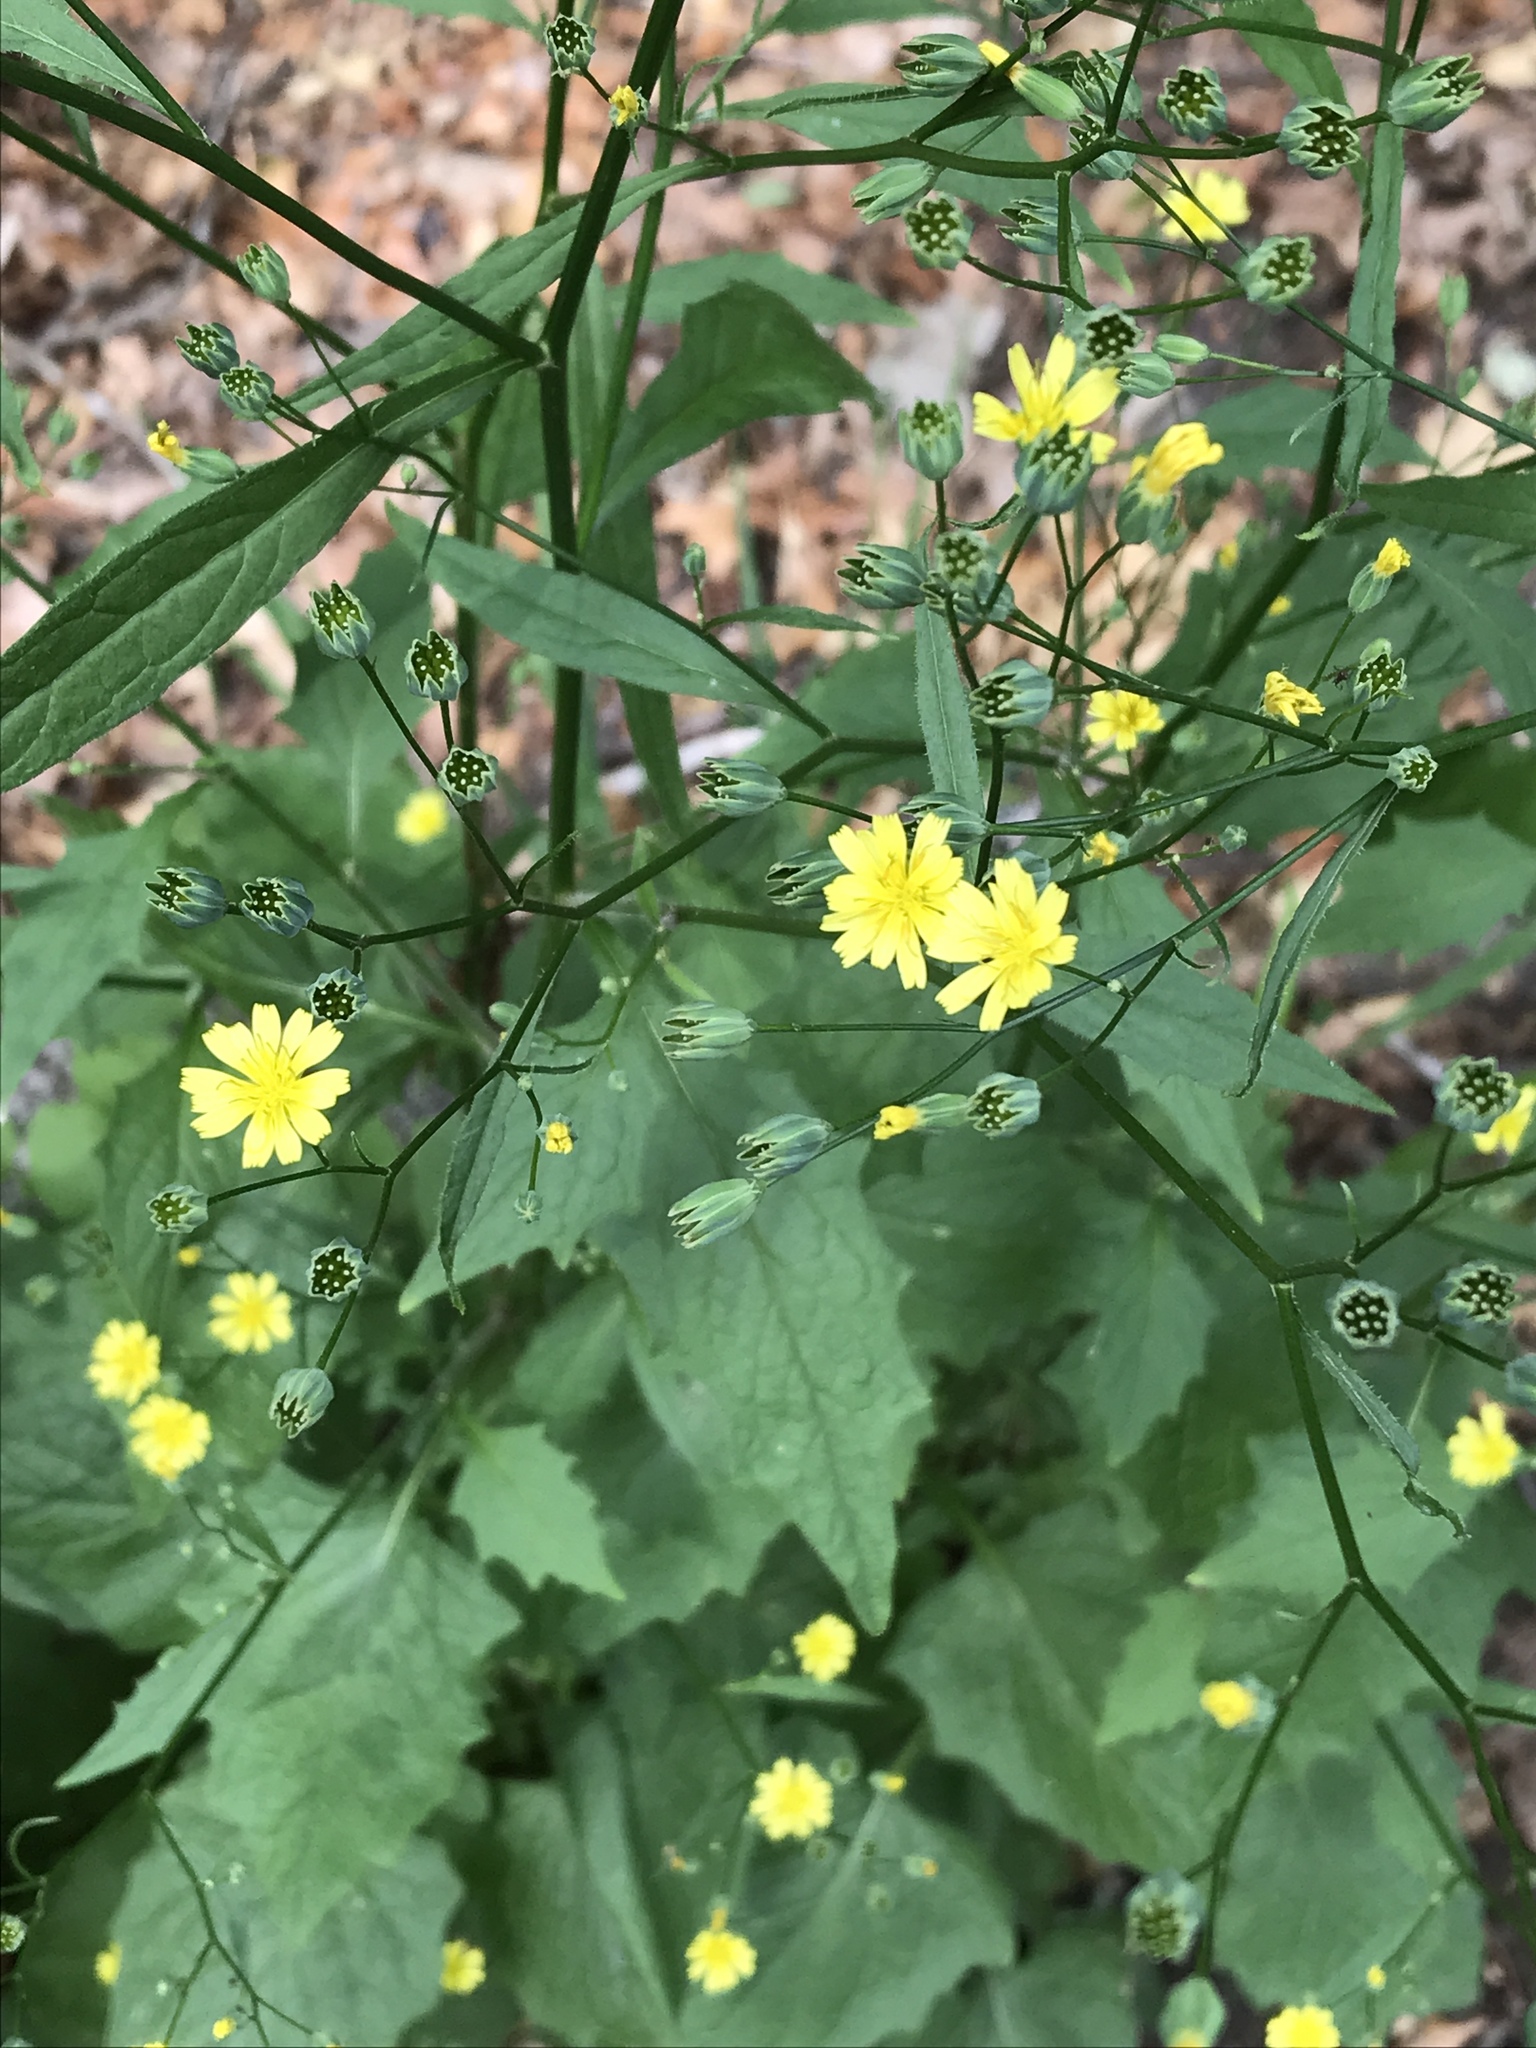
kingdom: Plantae
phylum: Tracheophyta
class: Magnoliopsida
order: Asterales
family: Asteraceae
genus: Lapsana
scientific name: Lapsana communis
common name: Nipplewort
